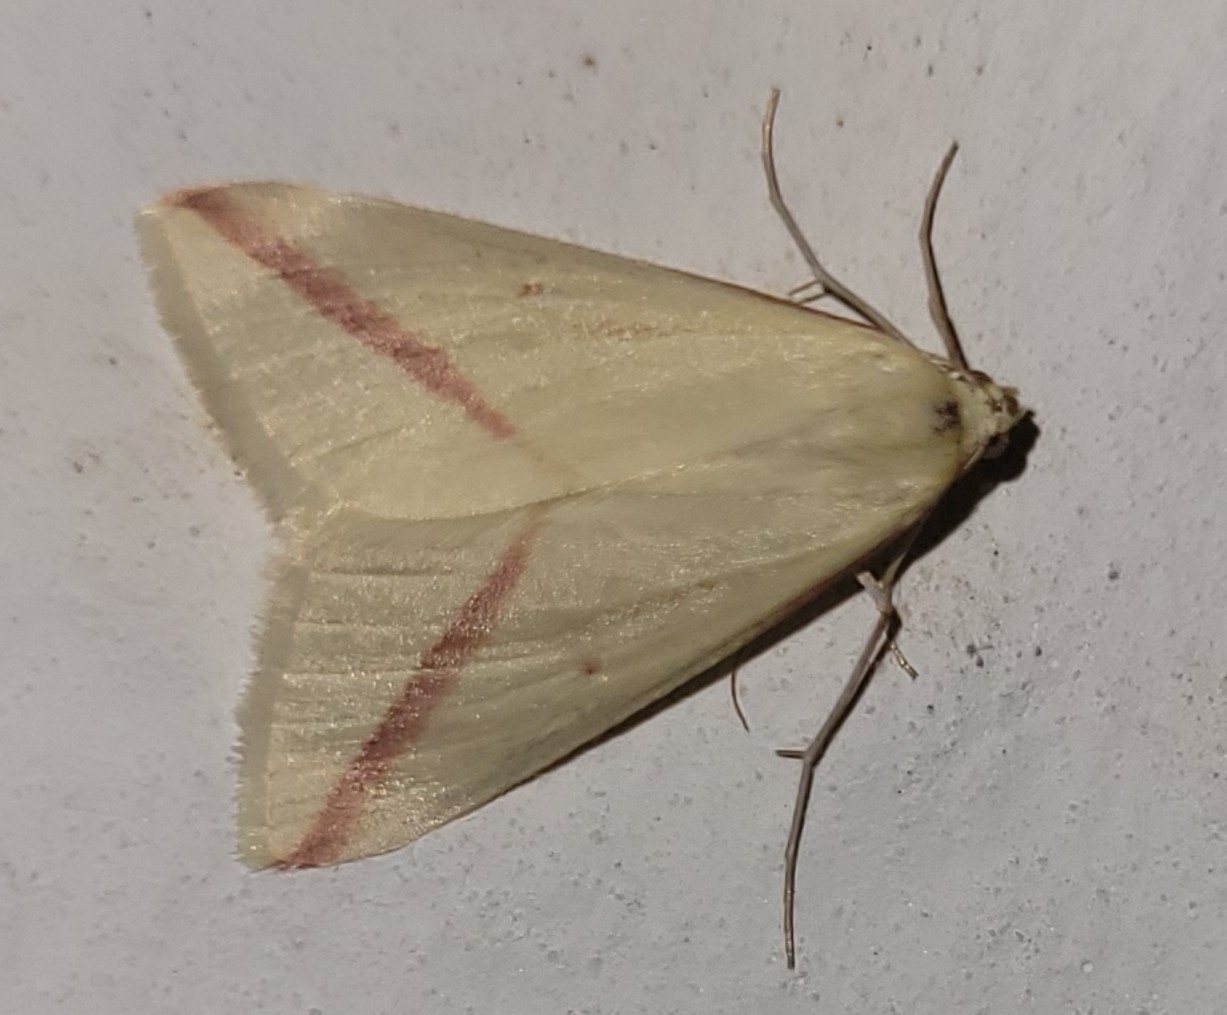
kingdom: Animalia
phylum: Arthropoda
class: Insecta
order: Lepidoptera
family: Geometridae
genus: Rhodometra
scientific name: Rhodometra sacraria
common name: Vestal
